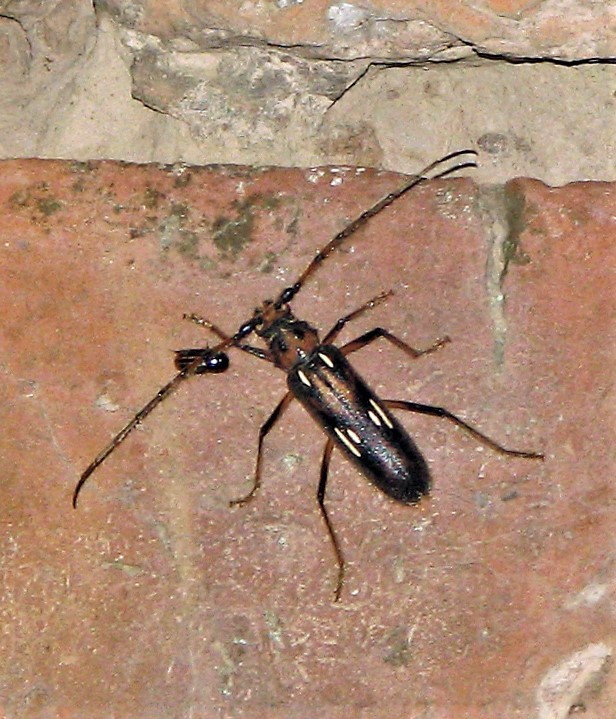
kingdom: Animalia
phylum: Arthropoda
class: Insecta
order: Coleoptera
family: Cerambycidae
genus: Uncieburia
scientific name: Uncieburia quadrilineata
